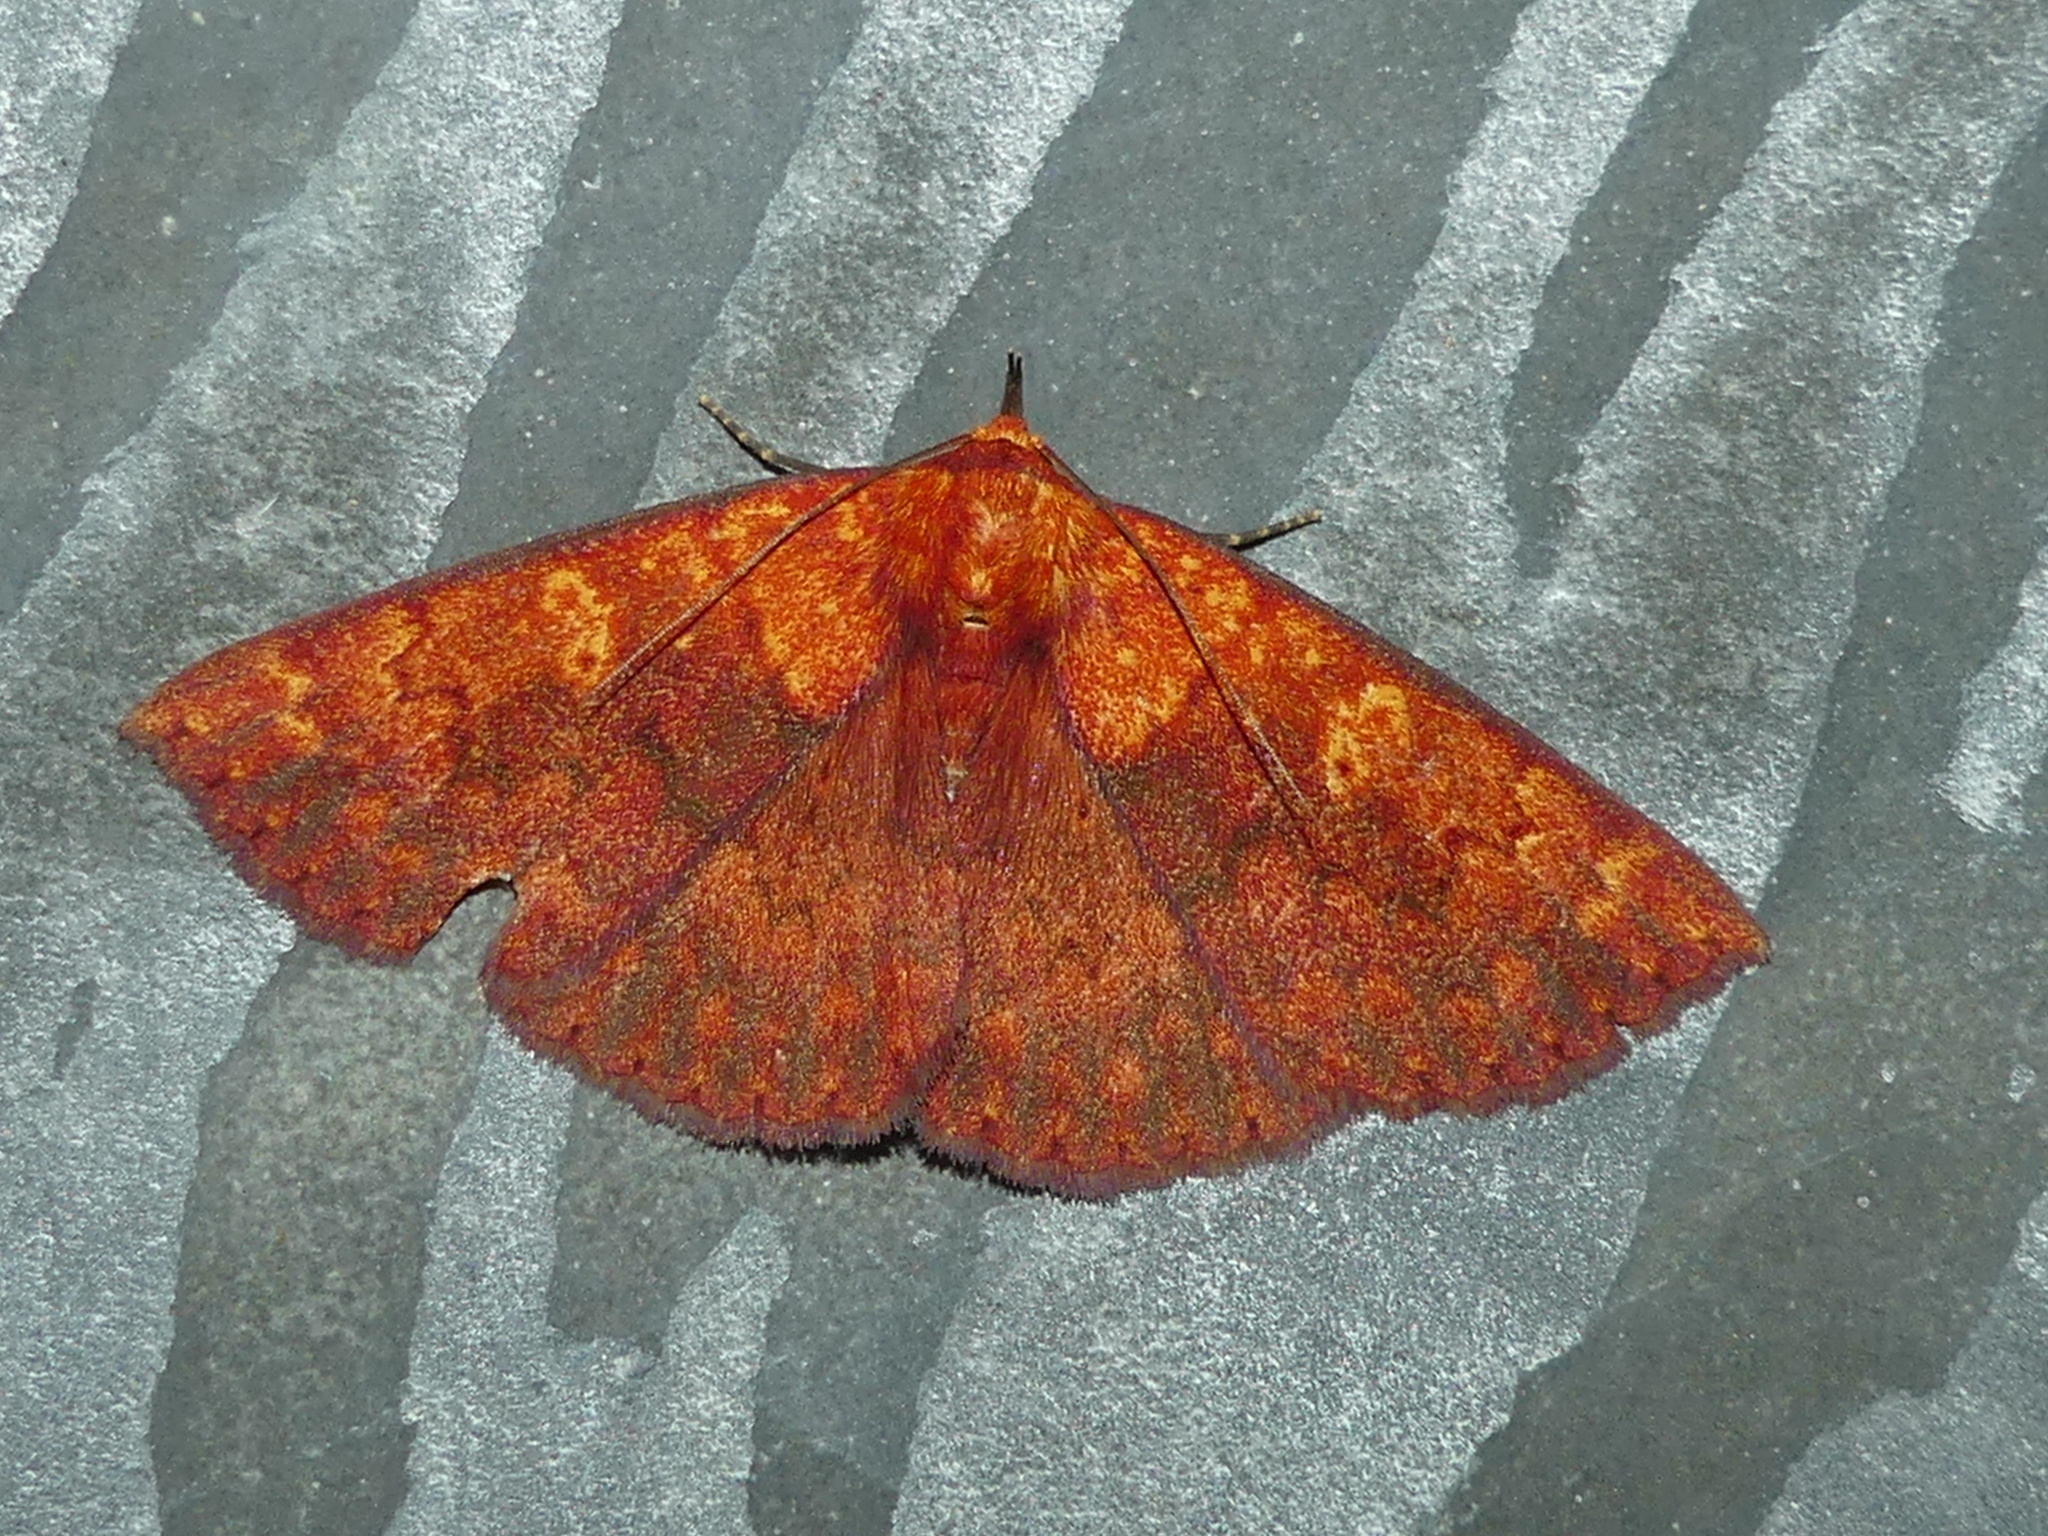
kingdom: Animalia
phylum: Arthropoda
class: Insecta
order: Lepidoptera
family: Erebidae
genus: Singara
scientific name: Singara diversalis
